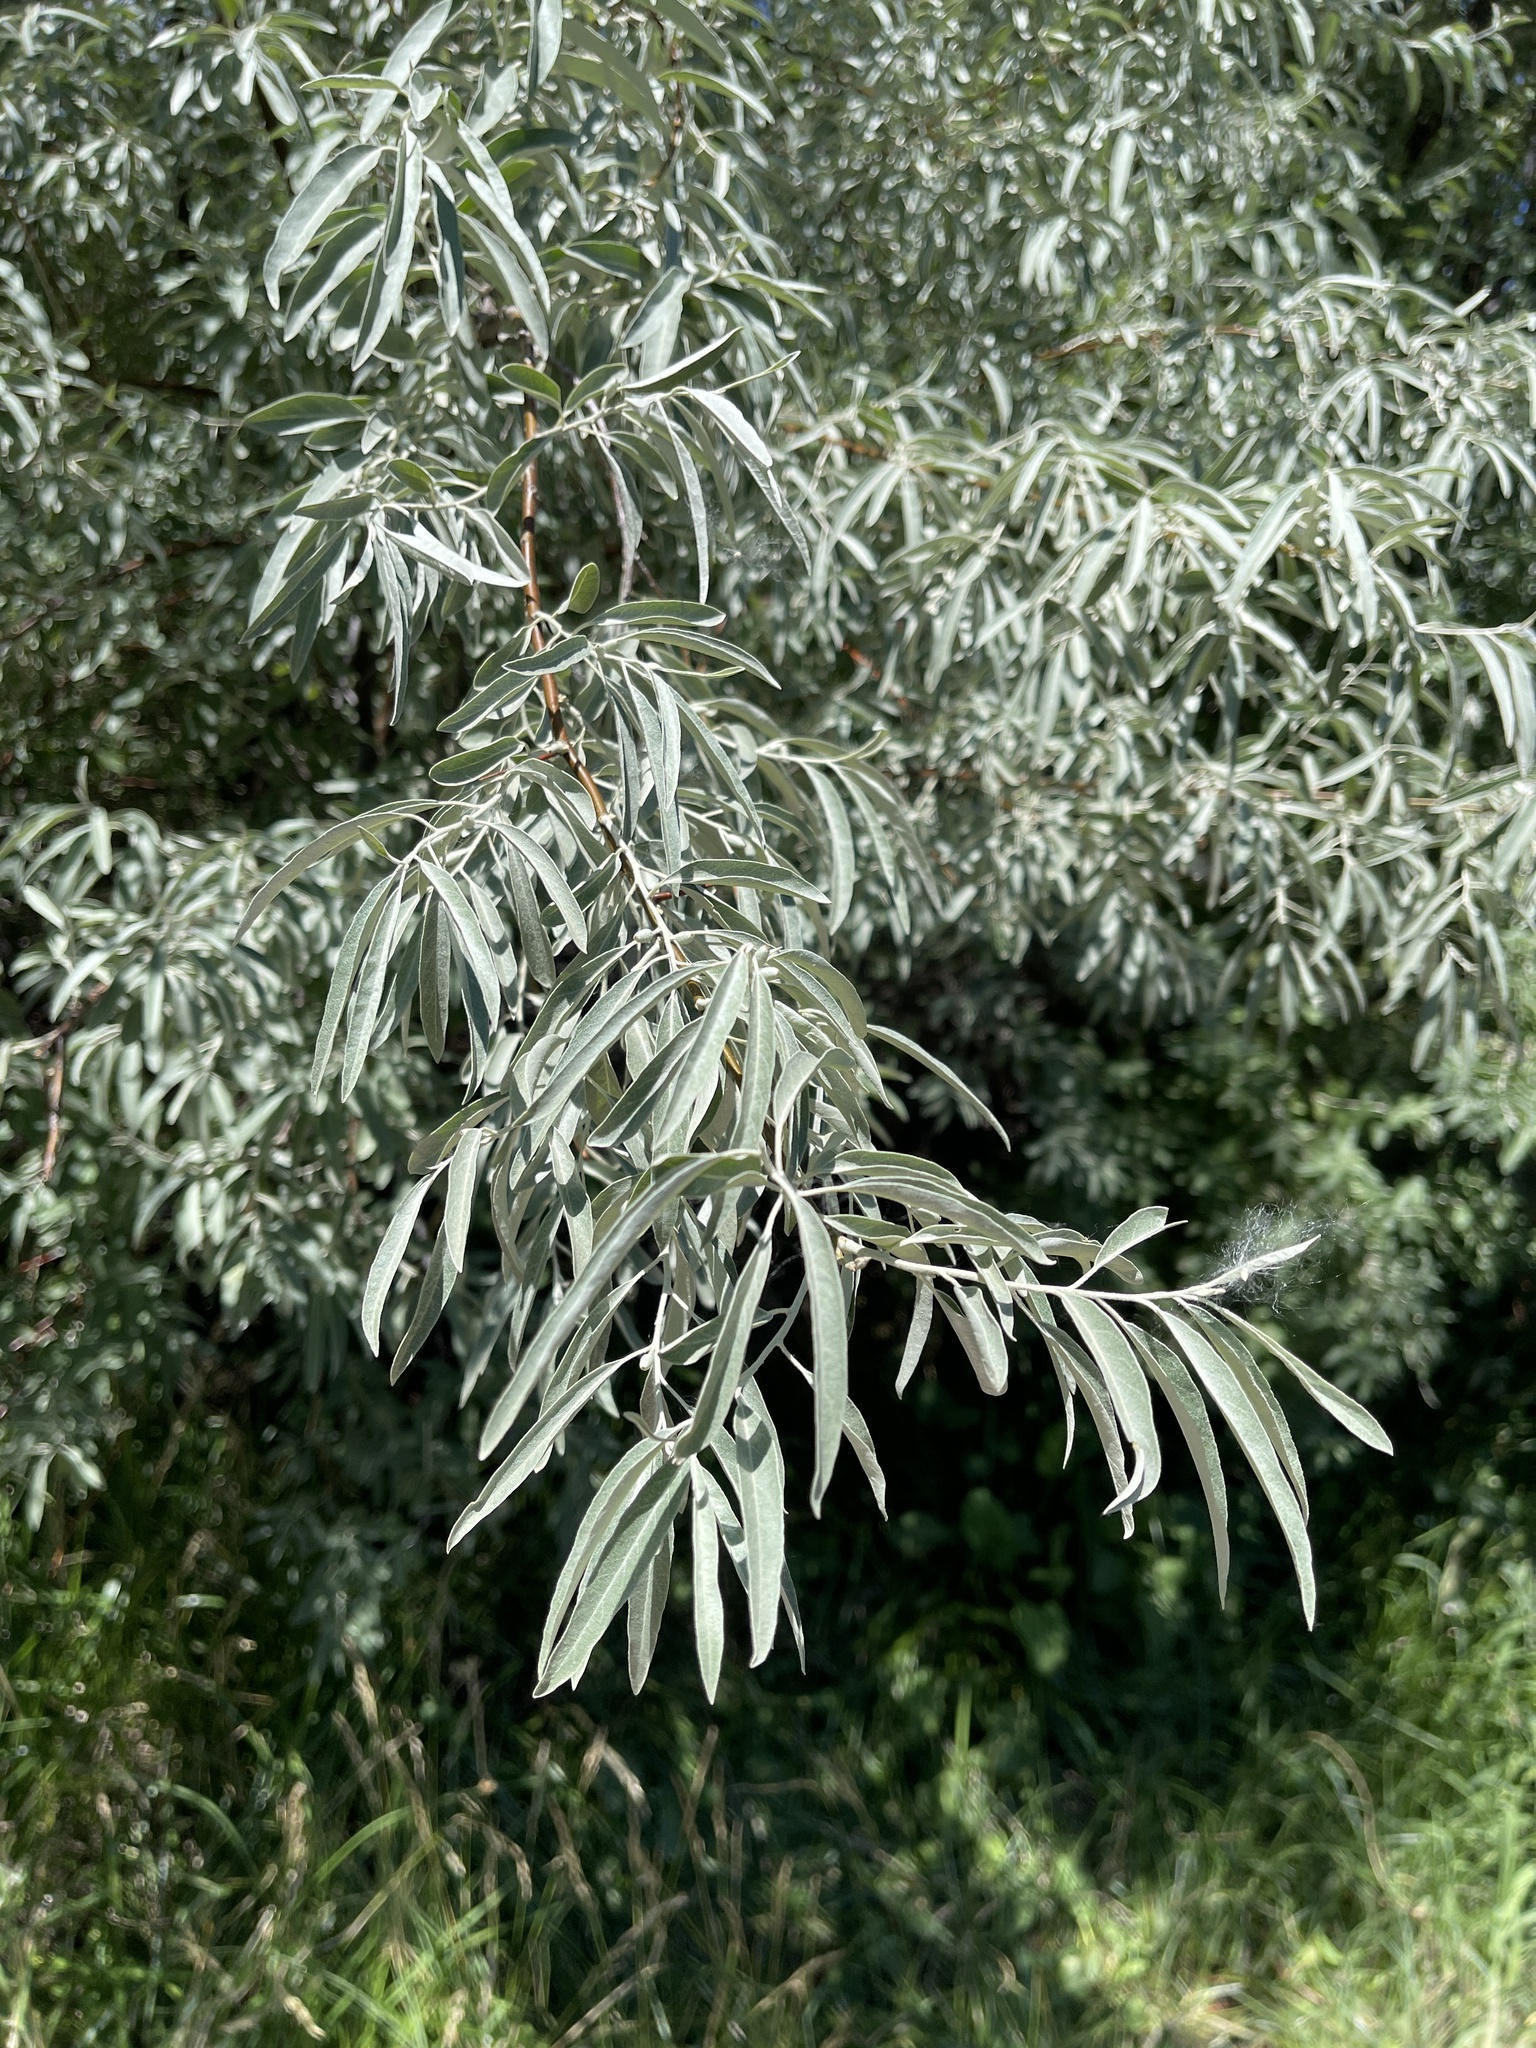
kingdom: Plantae
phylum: Tracheophyta
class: Magnoliopsida
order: Rosales
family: Elaeagnaceae
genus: Elaeagnus
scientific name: Elaeagnus angustifolia
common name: Russian olive
